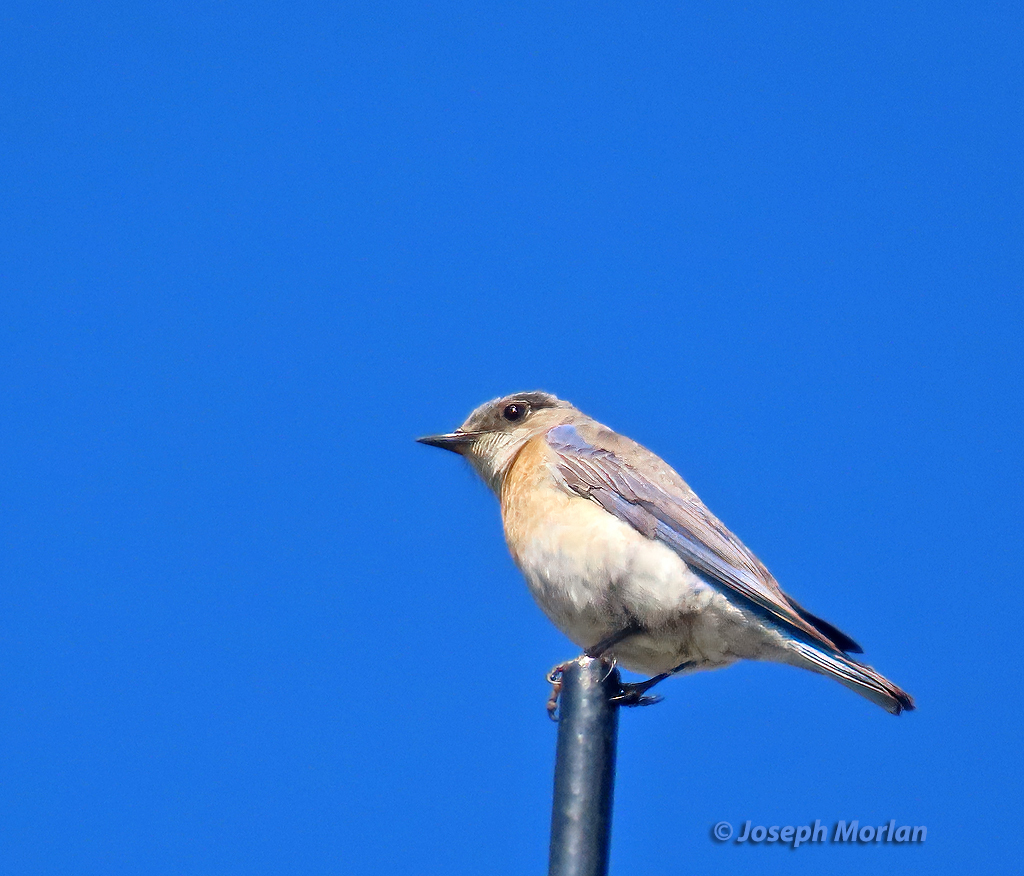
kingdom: Animalia
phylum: Chordata
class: Aves
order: Passeriformes
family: Turdidae
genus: Sialia
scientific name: Sialia mexicana
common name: Western bluebird
